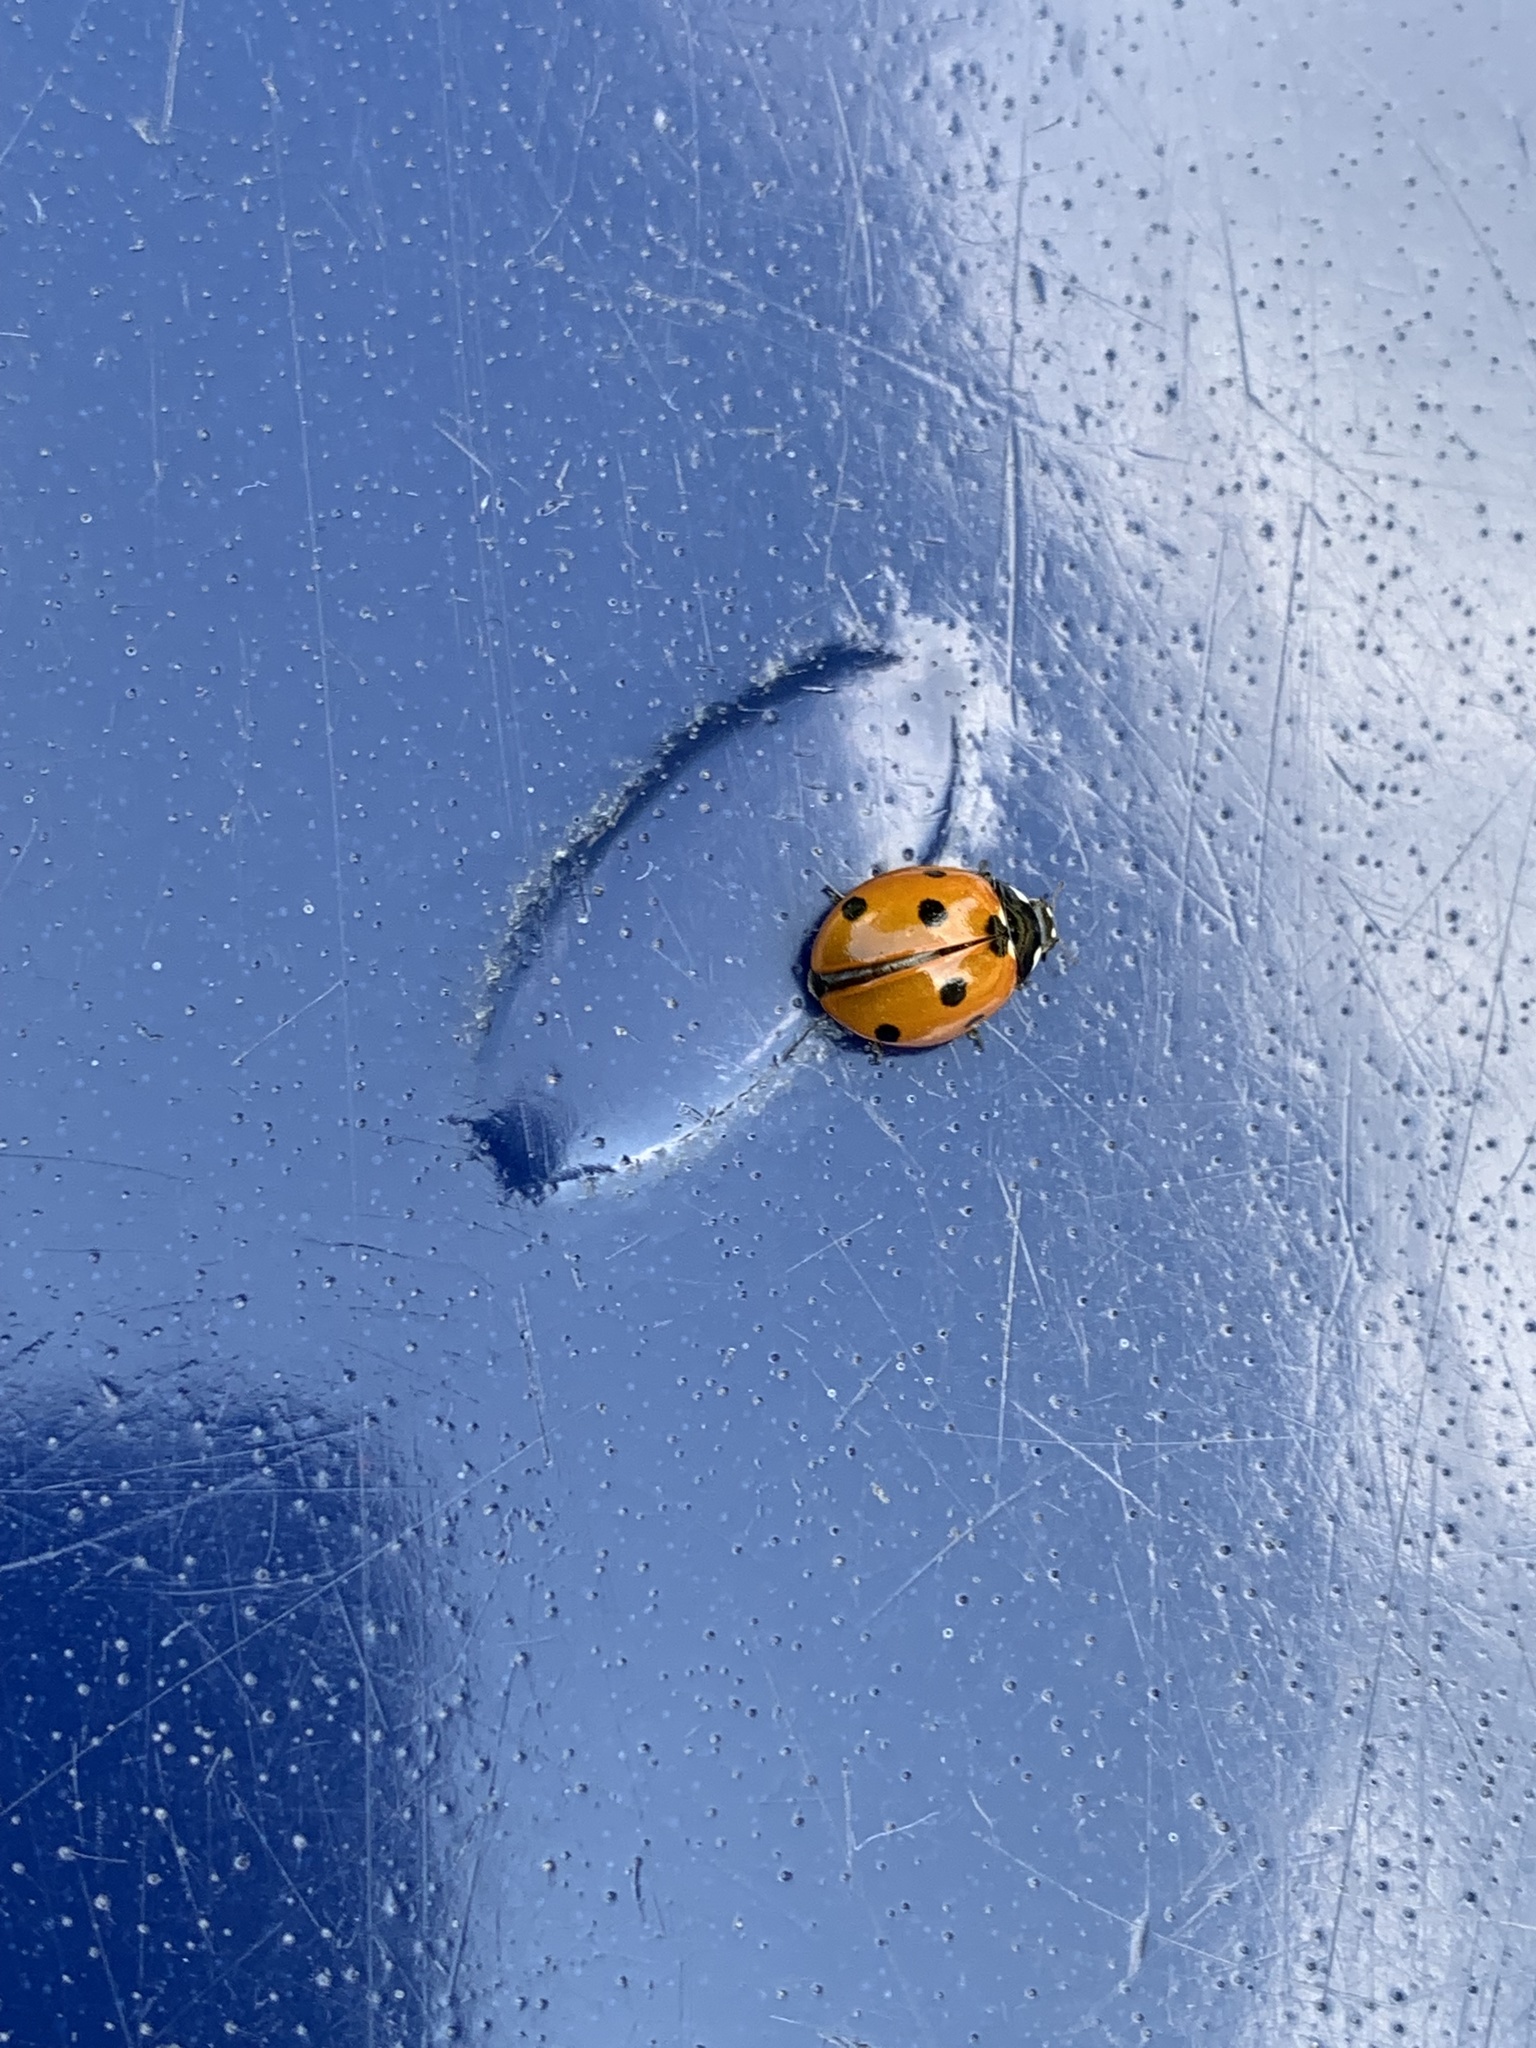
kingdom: Animalia
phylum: Arthropoda
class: Insecta
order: Coleoptera
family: Coccinellidae
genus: Coccinella
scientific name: Coccinella septempunctata
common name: Sevenspotted lady beetle
